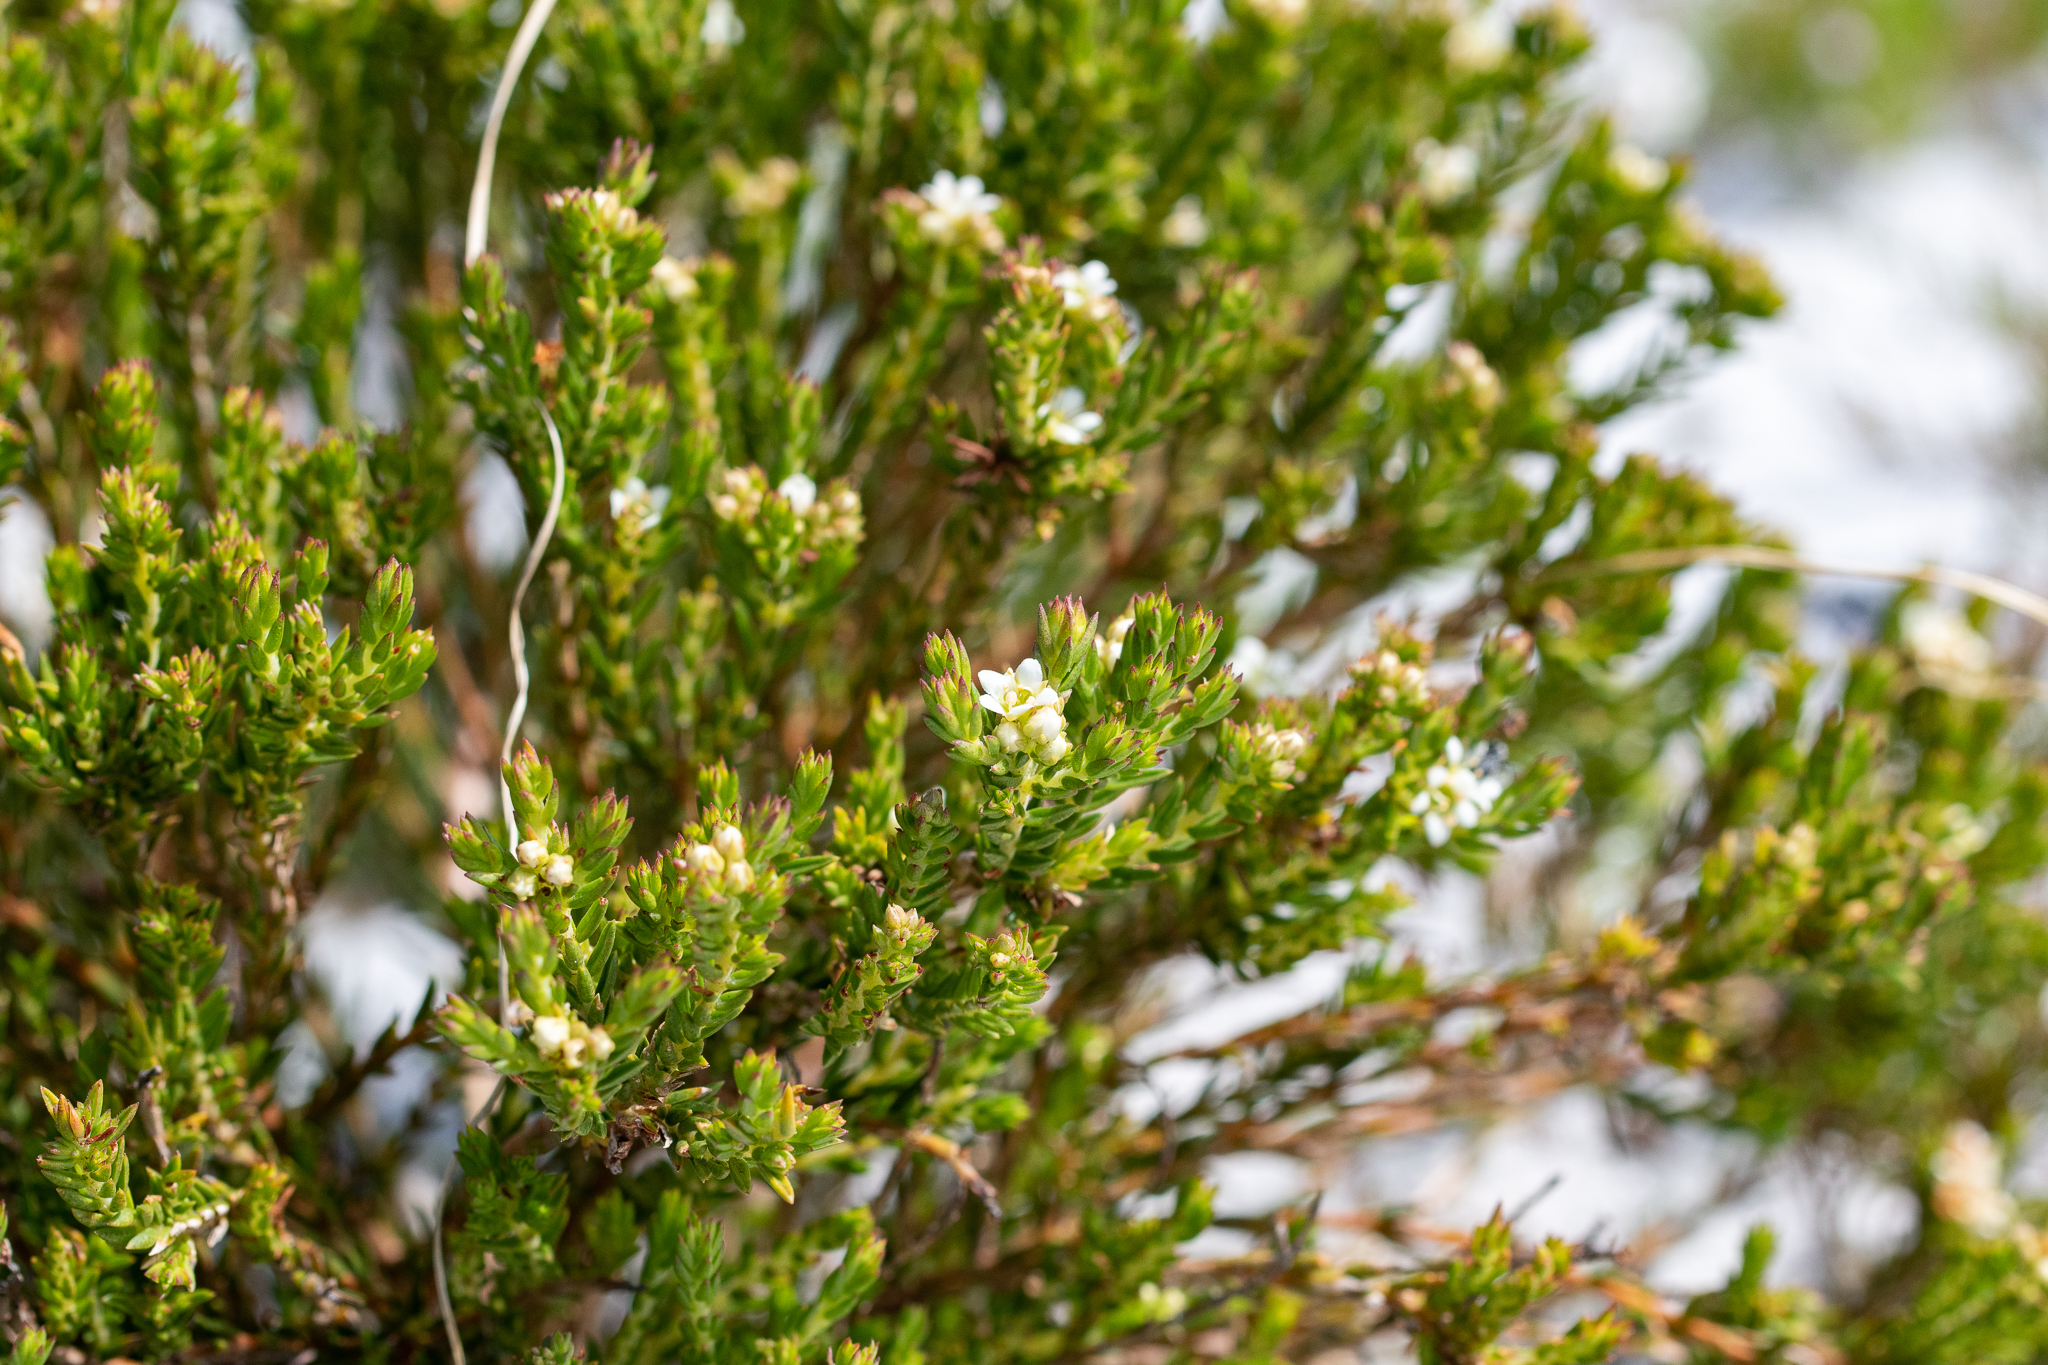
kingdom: Plantae
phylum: Tracheophyta
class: Magnoliopsida
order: Sapindales
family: Rutaceae
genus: Diosma
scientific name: Diosma oppositifolia
